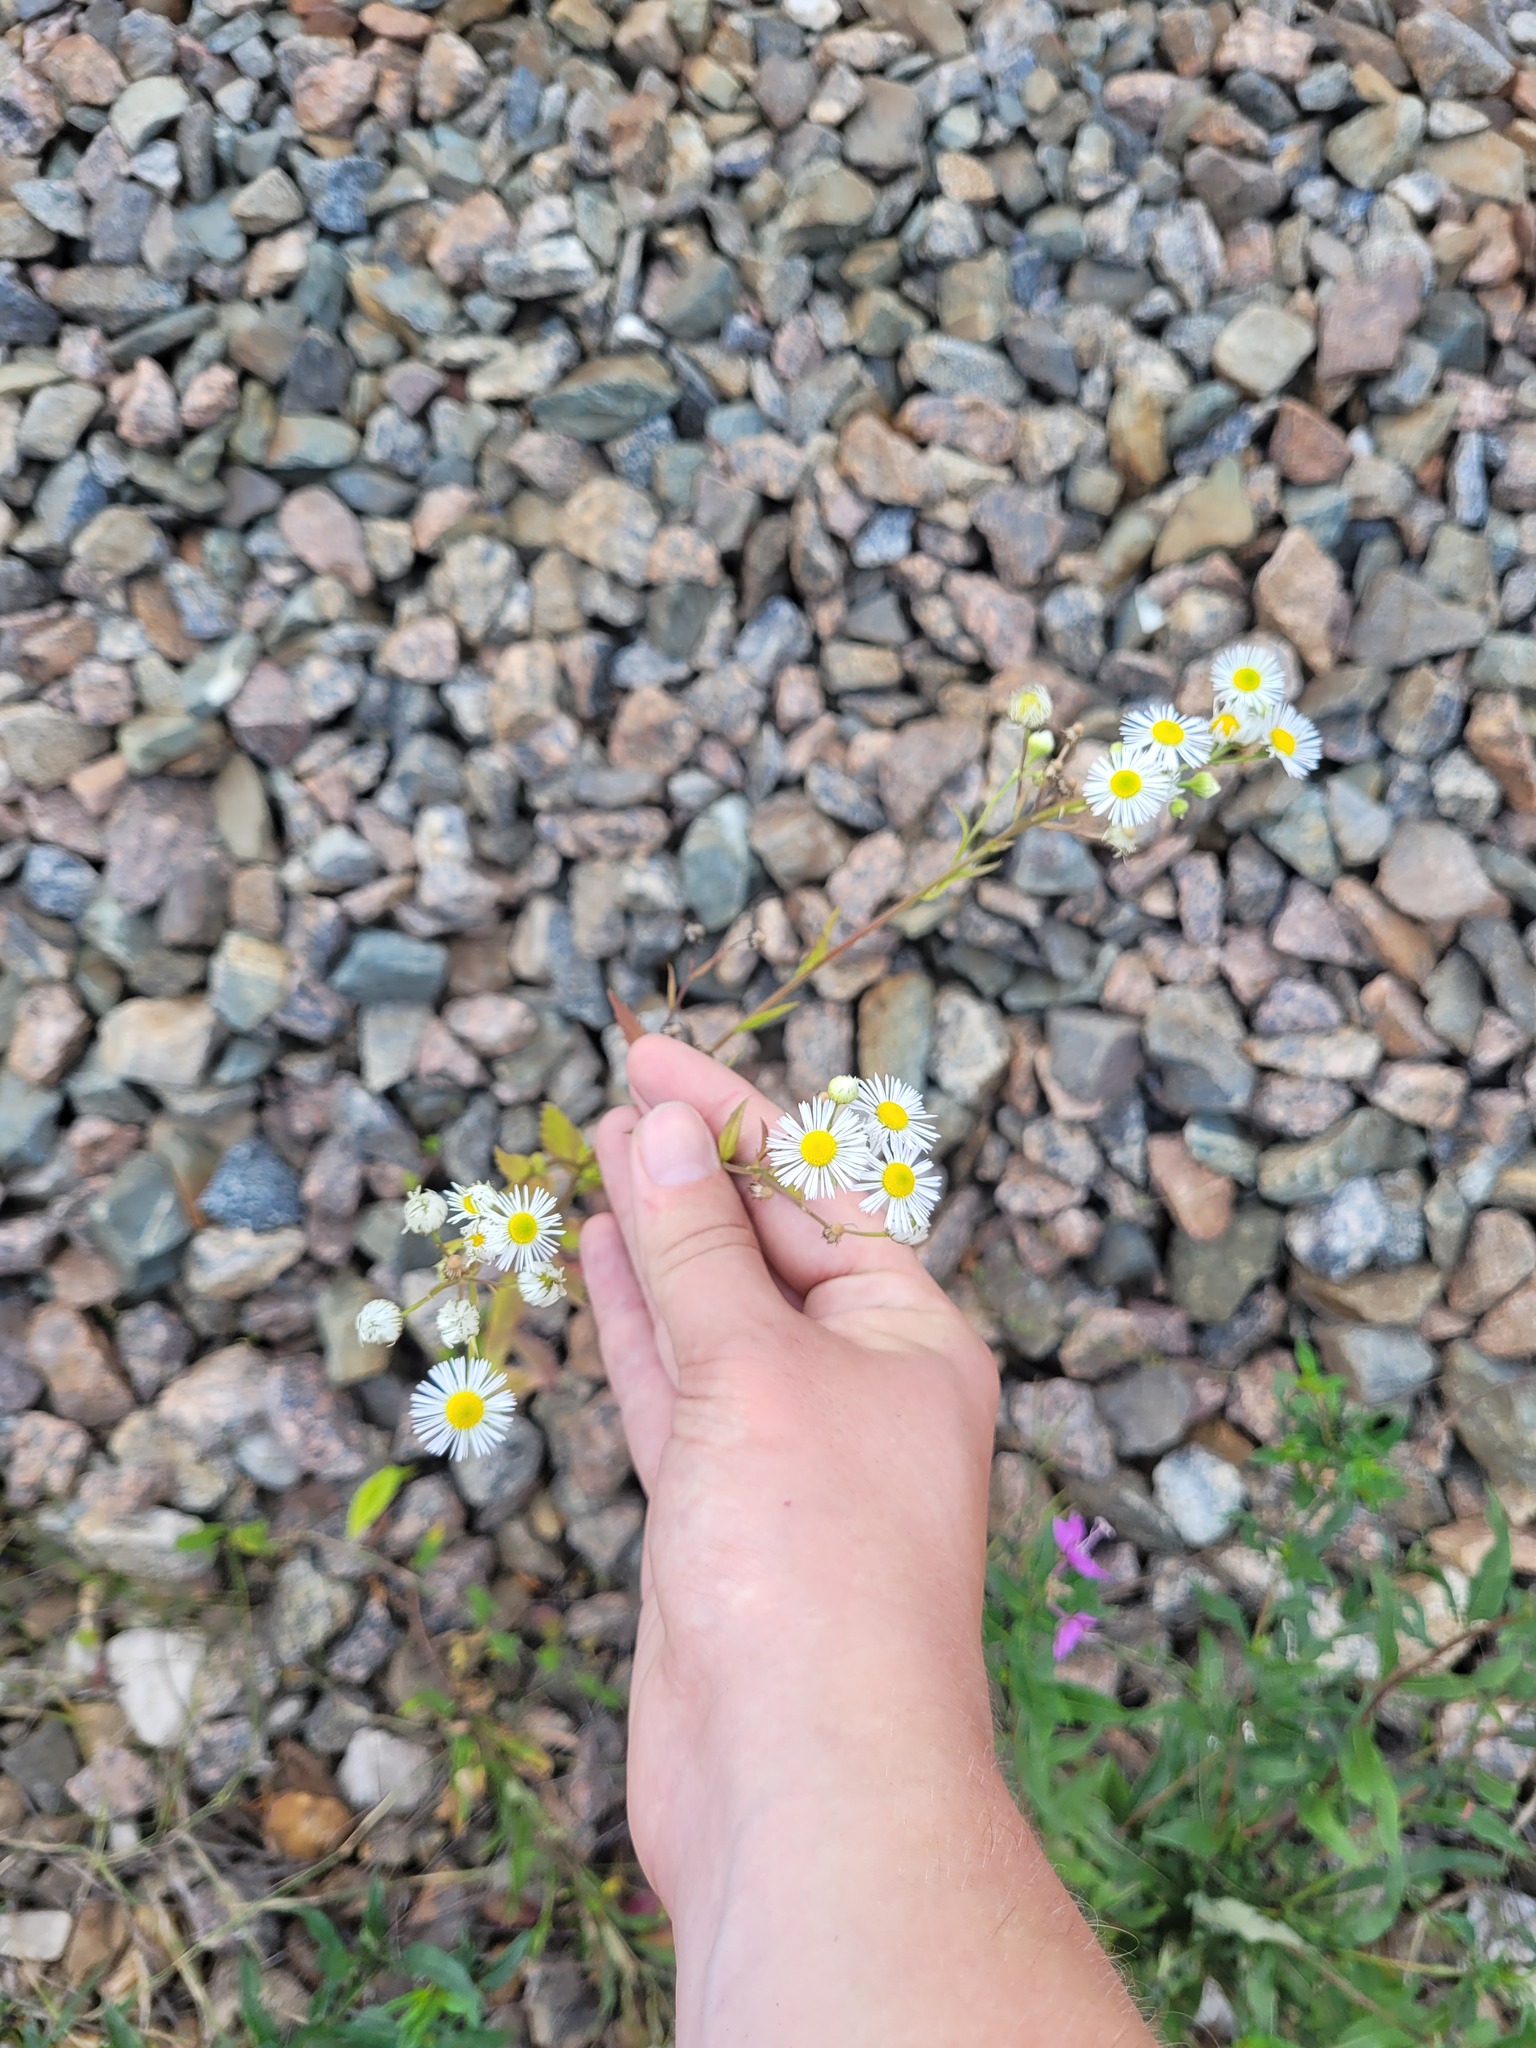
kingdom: Plantae
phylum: Tracheophyta
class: Magnoliopsida
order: Asterales
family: Asteraceae
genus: Erigeron
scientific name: Erigeron annuus
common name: Tall fleabane
